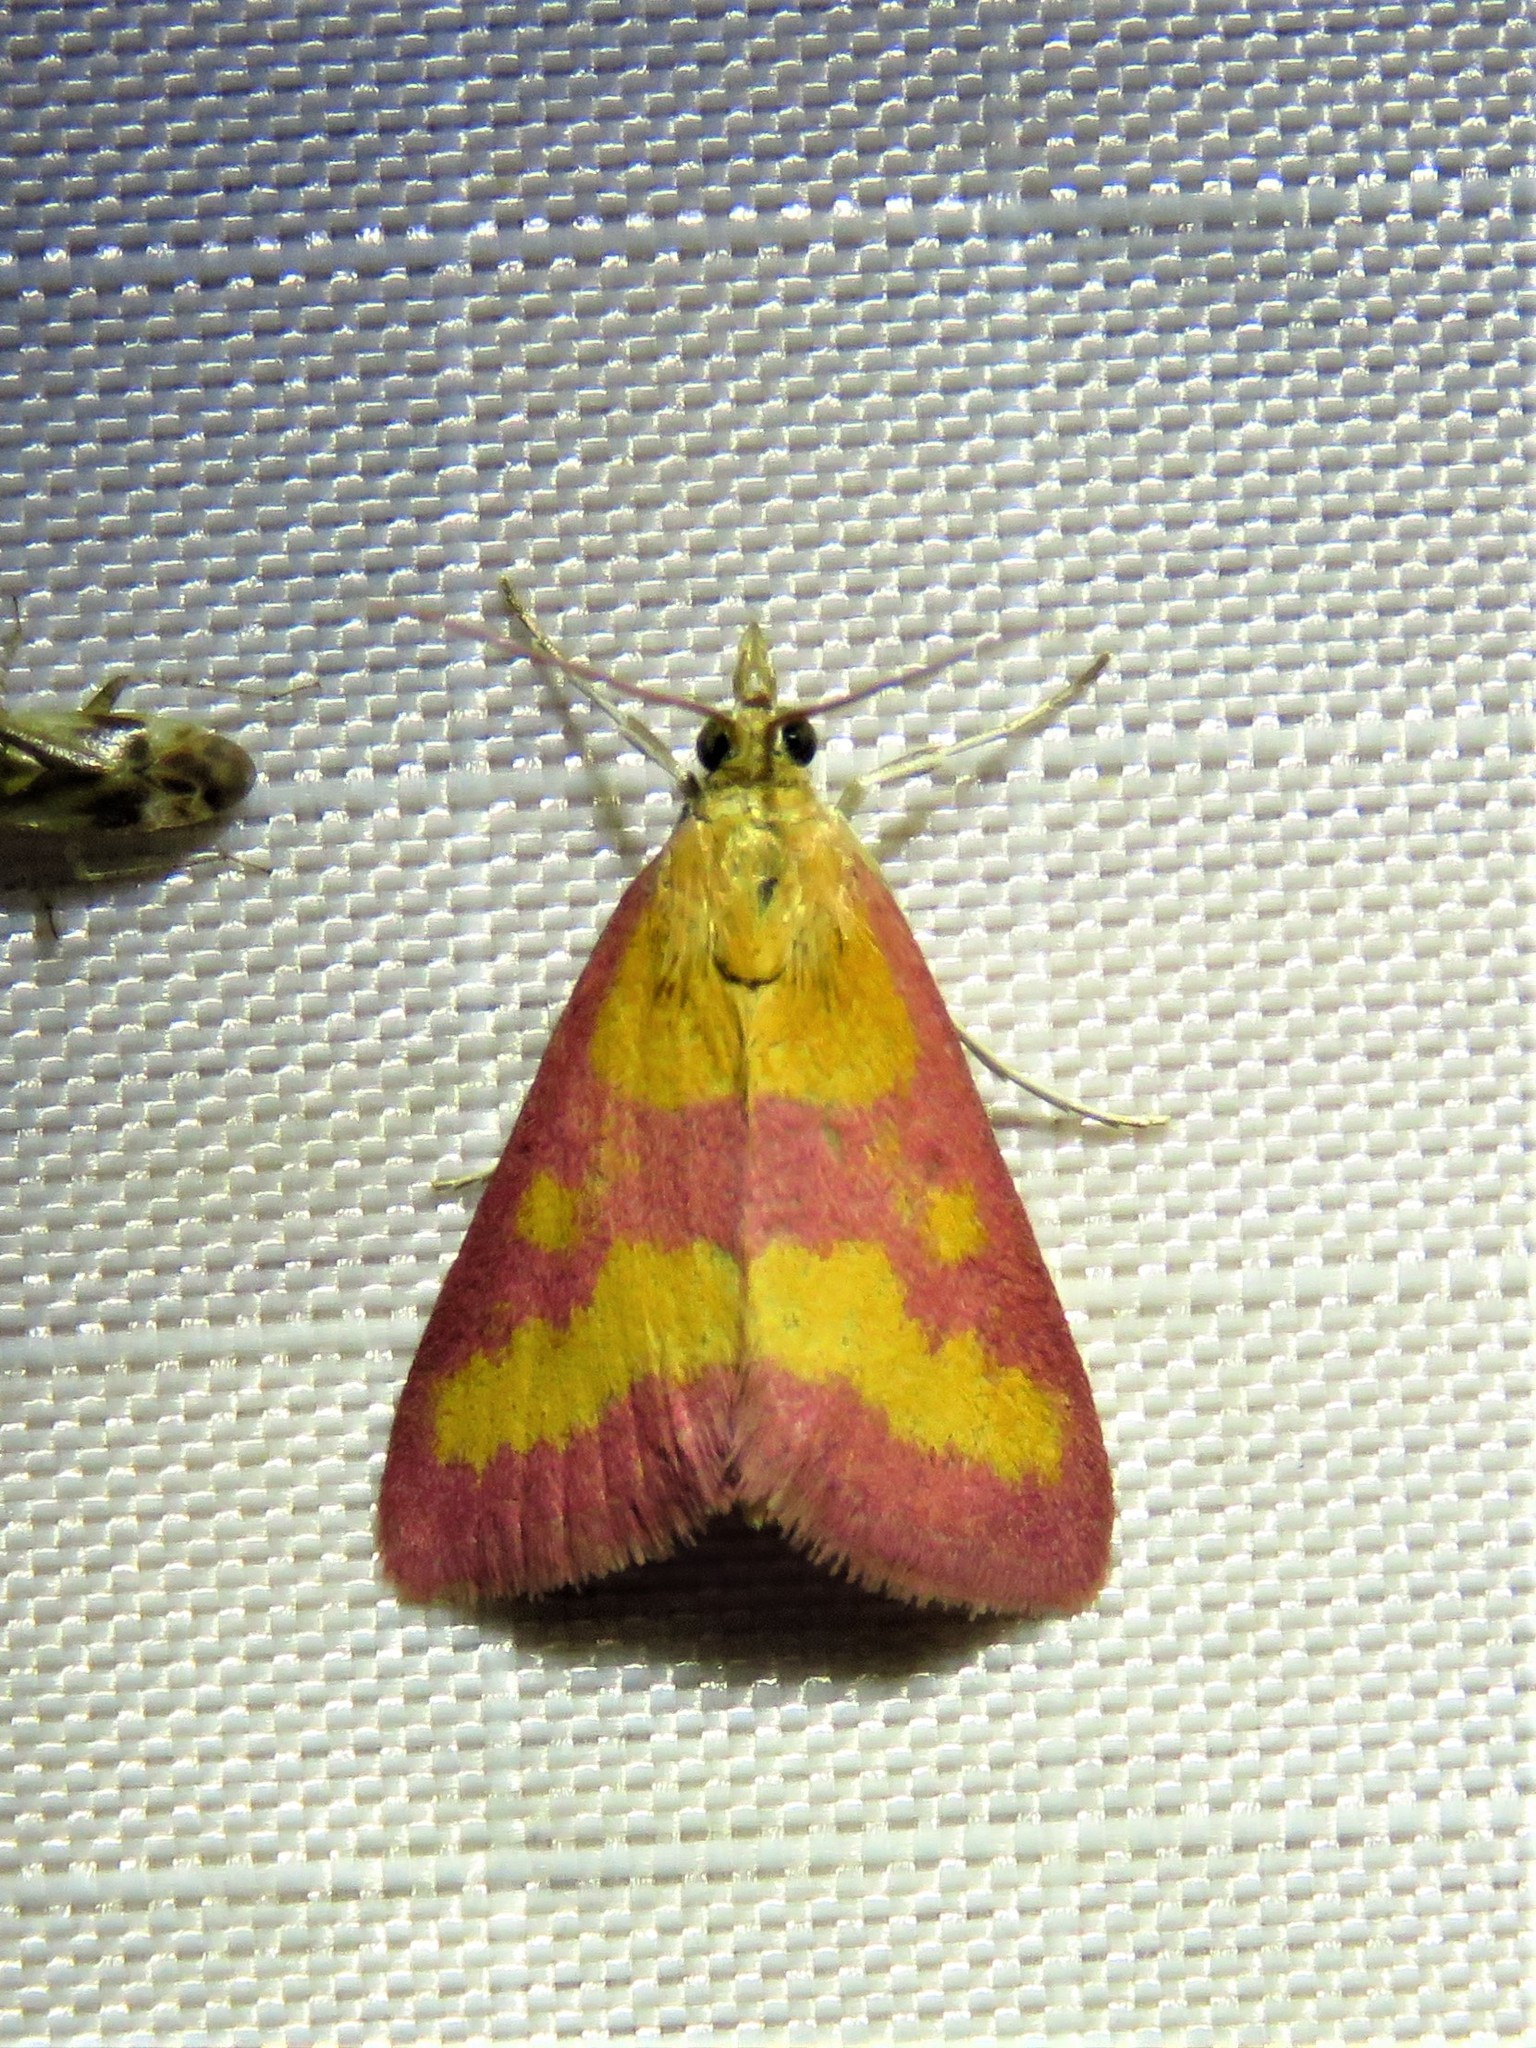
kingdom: Animalia
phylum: Arthropoda
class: Insecta
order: Lepidoptera
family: Crambidae
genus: Pyrausta
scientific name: Pyrausta laticlavia
